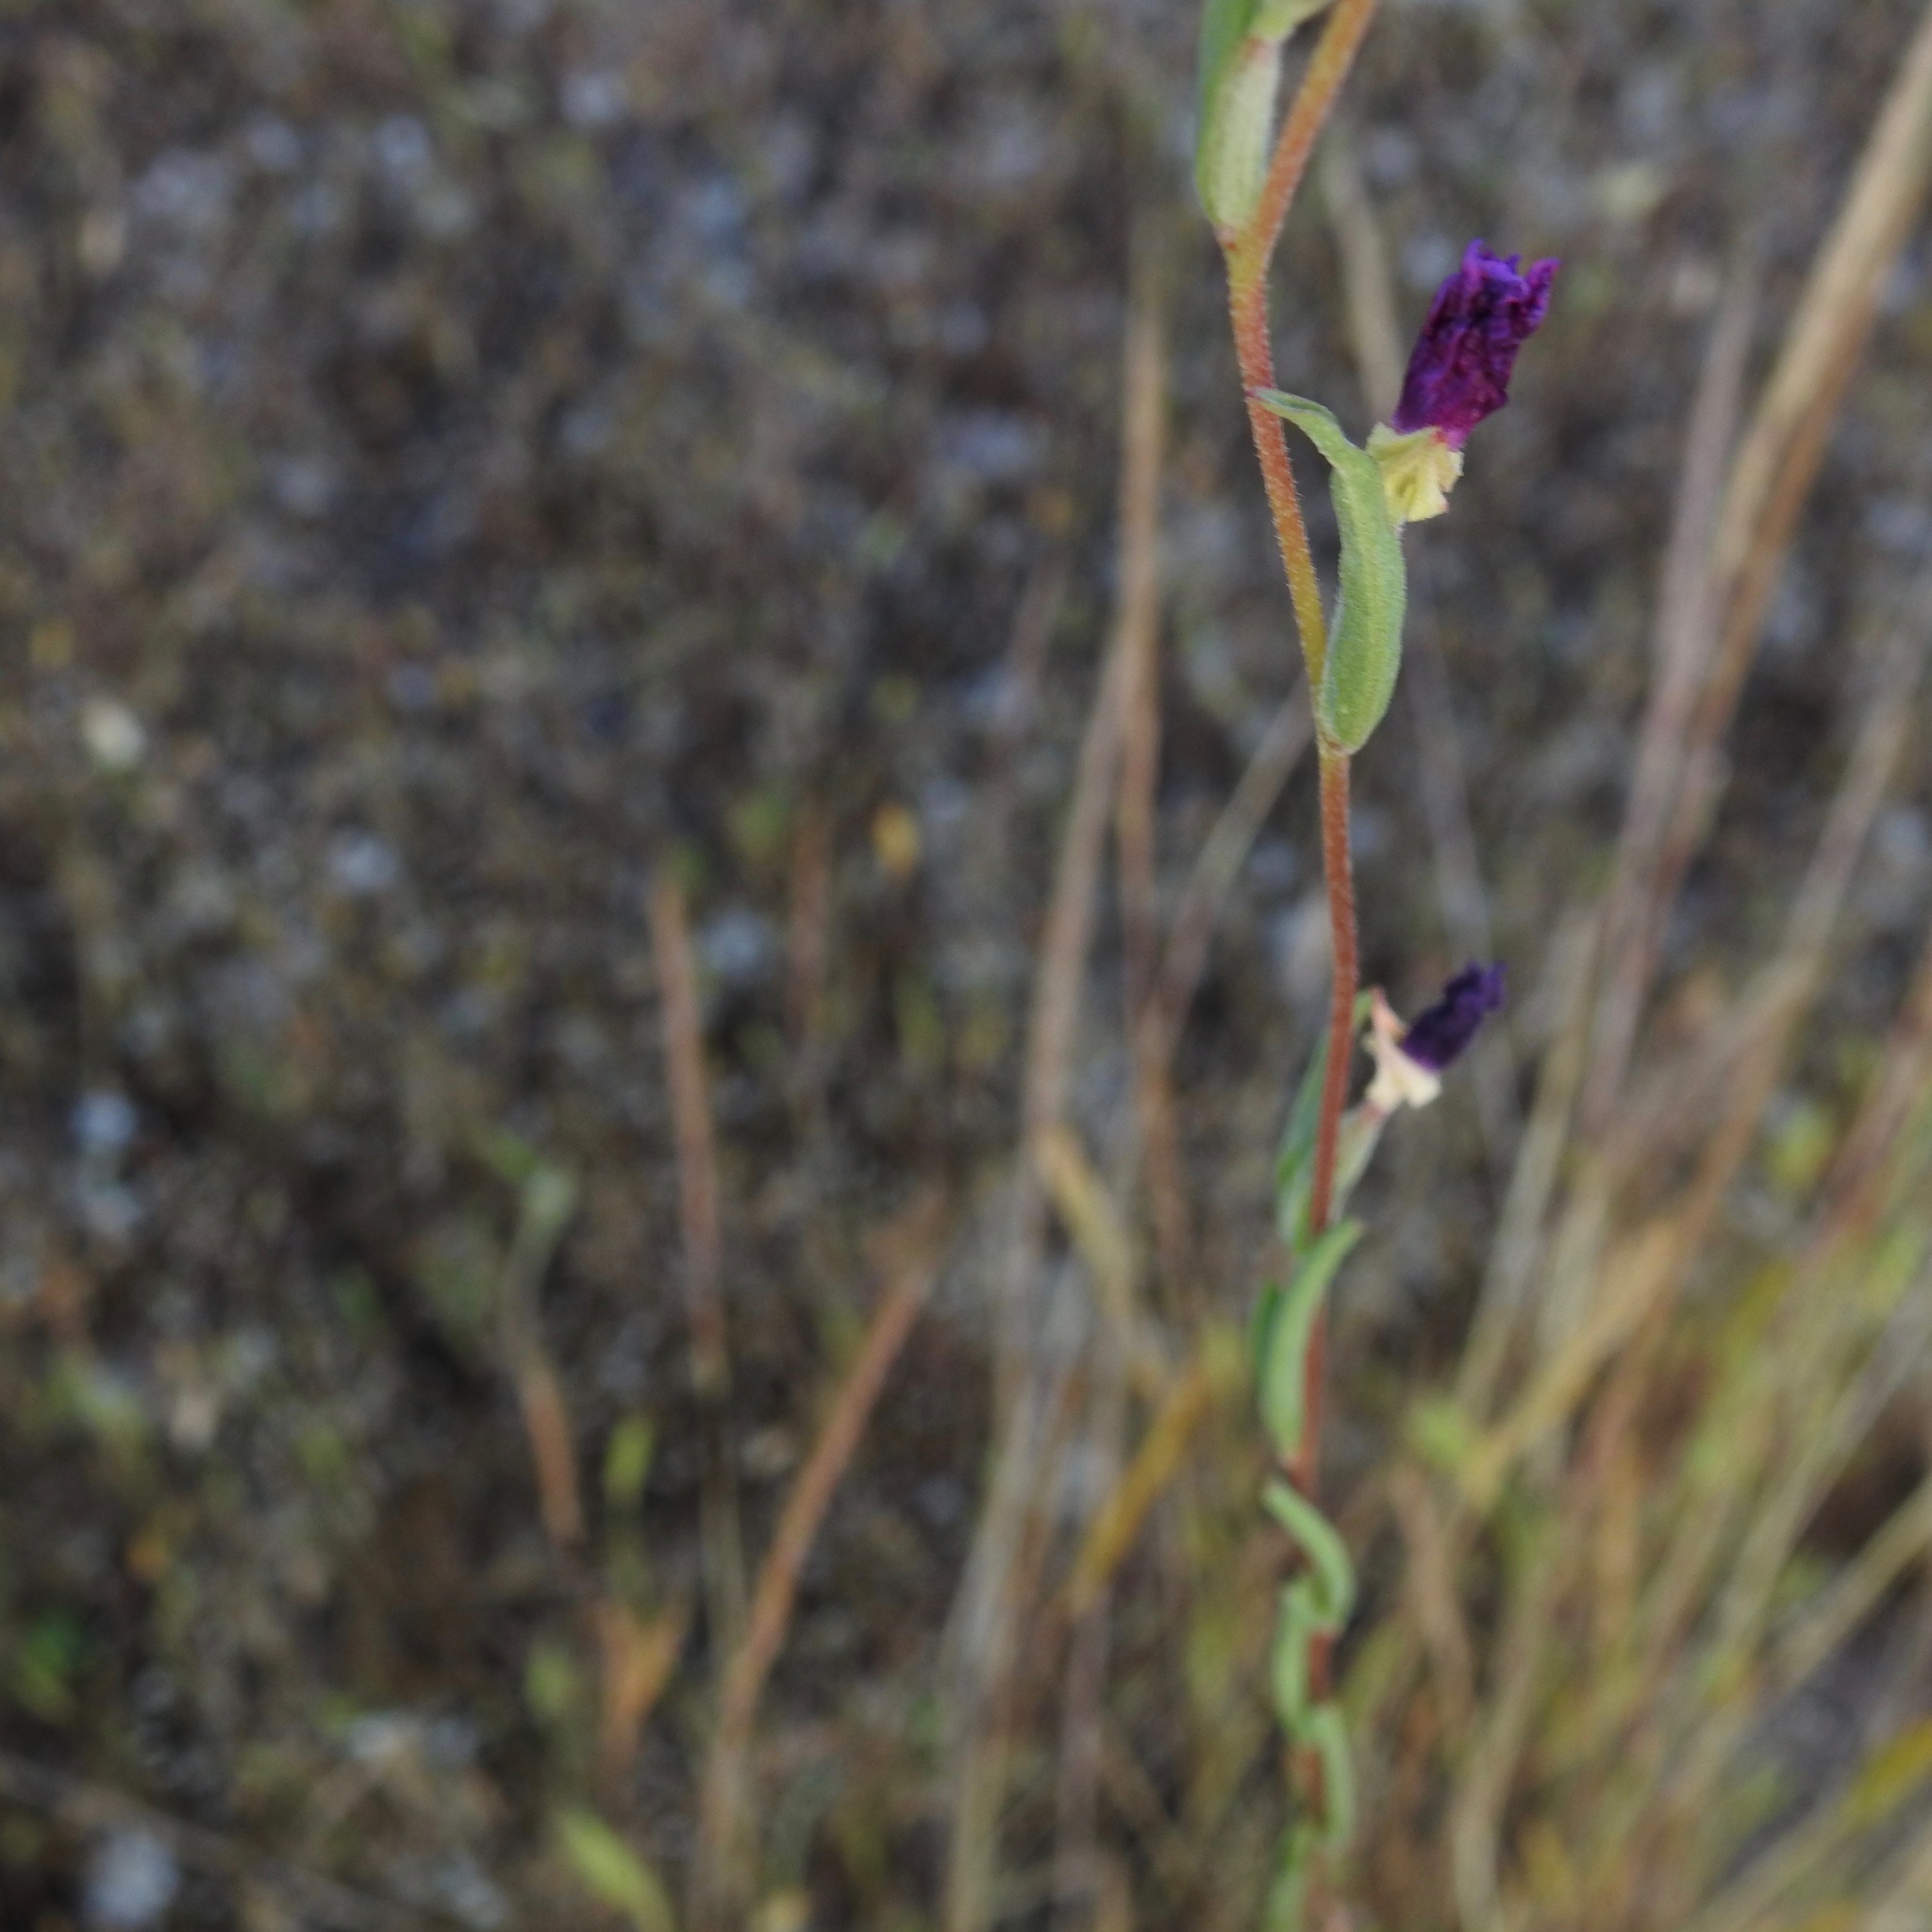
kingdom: Plantae
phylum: Tracheophyta
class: Magnoliopsida
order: Myrtales
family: Onagraceae
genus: Clarkia
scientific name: Clarkia purpurea
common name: Purple clarkia
